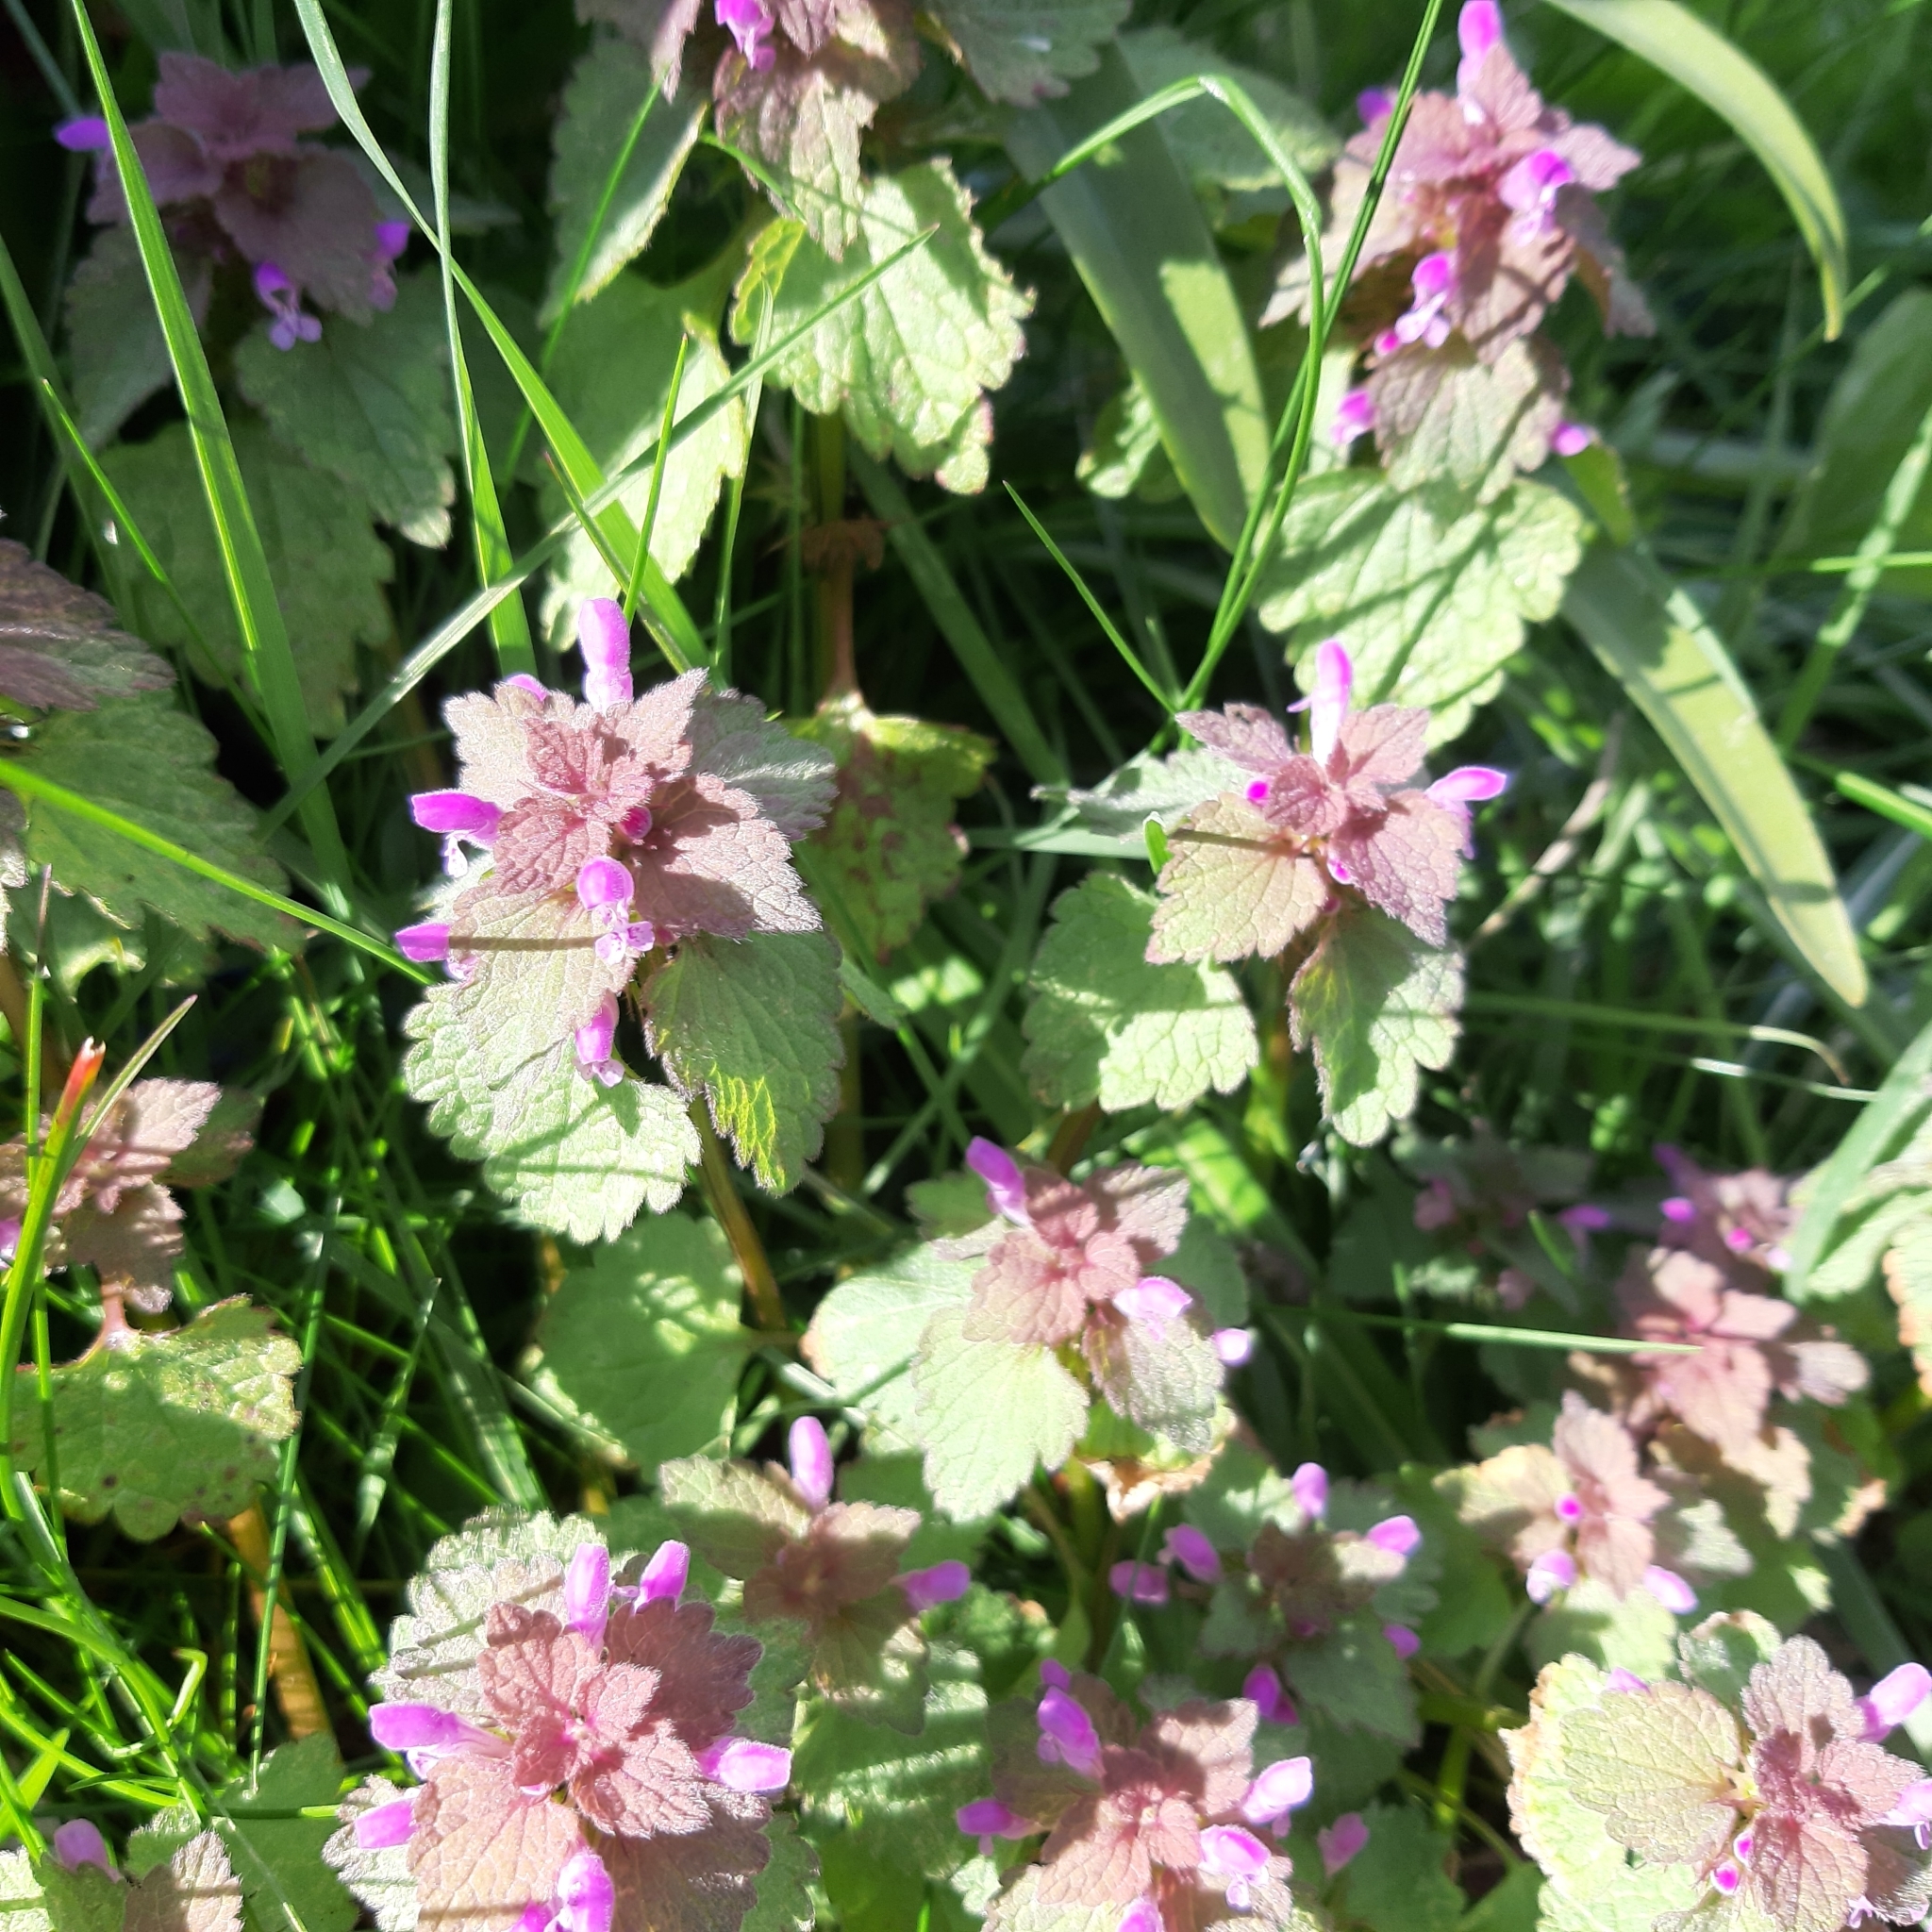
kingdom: Plantae
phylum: Tracheophyta
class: Magnoliopsida
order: Lamiales
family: Lamiaceae
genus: Lamium
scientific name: Lamium purpureum
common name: Red dead-nettle
